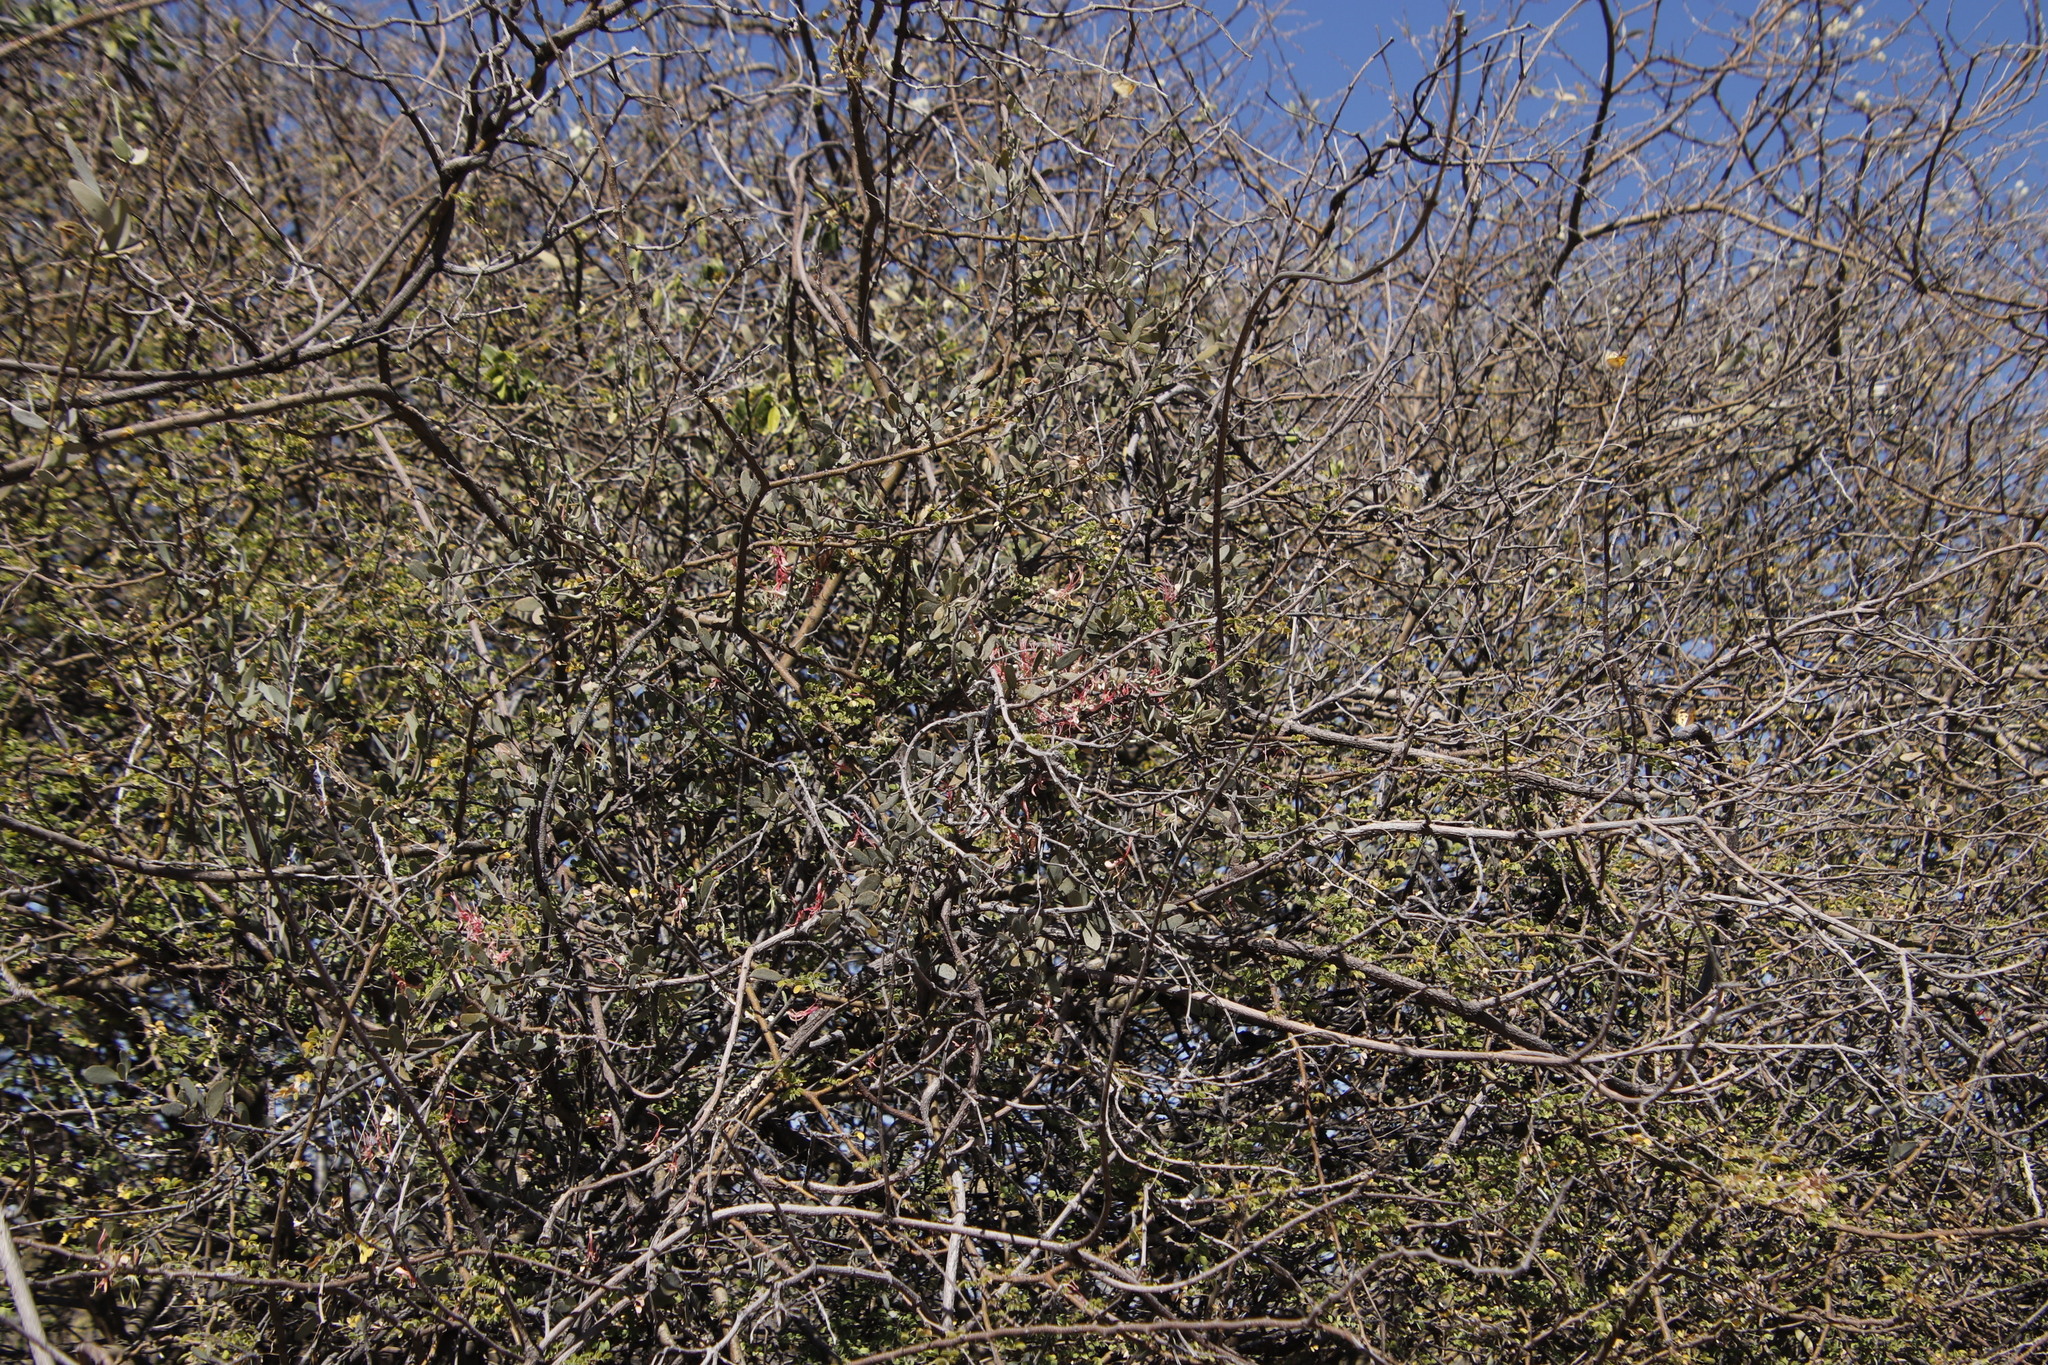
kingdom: Plantae
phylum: Tracheophyta
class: Magnoliopsida
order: Fabales
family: Fabaceae
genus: Senegalia
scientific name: Senegalia mellifera
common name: Hookthorn
